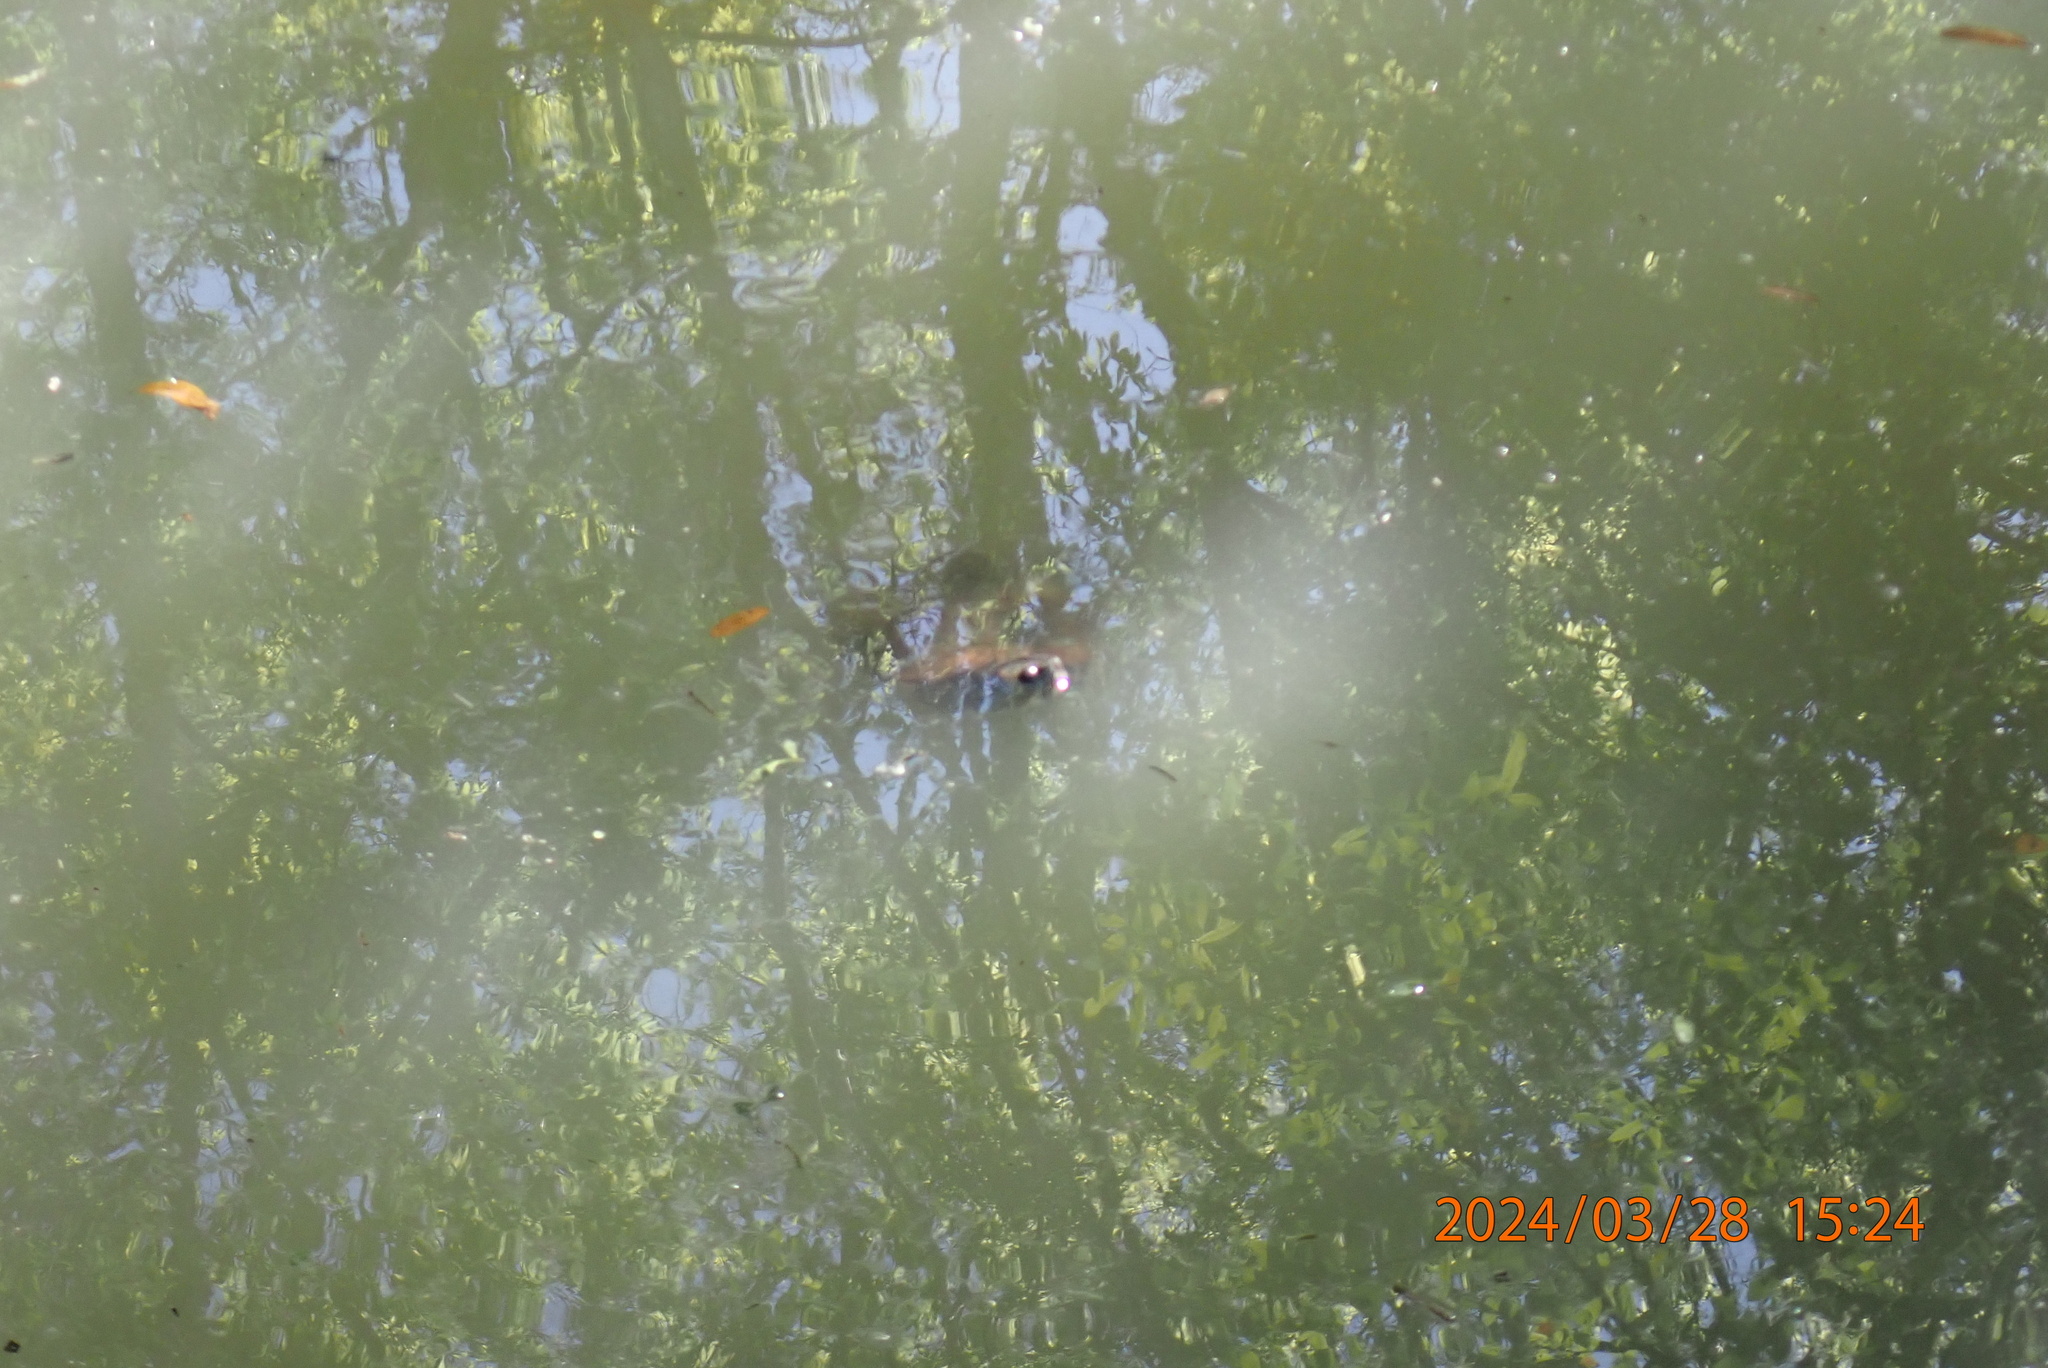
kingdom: Animalia
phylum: Chordata
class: Testudines
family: Emydidae
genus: Trachemys
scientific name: Trachemys scripta
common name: Slider
